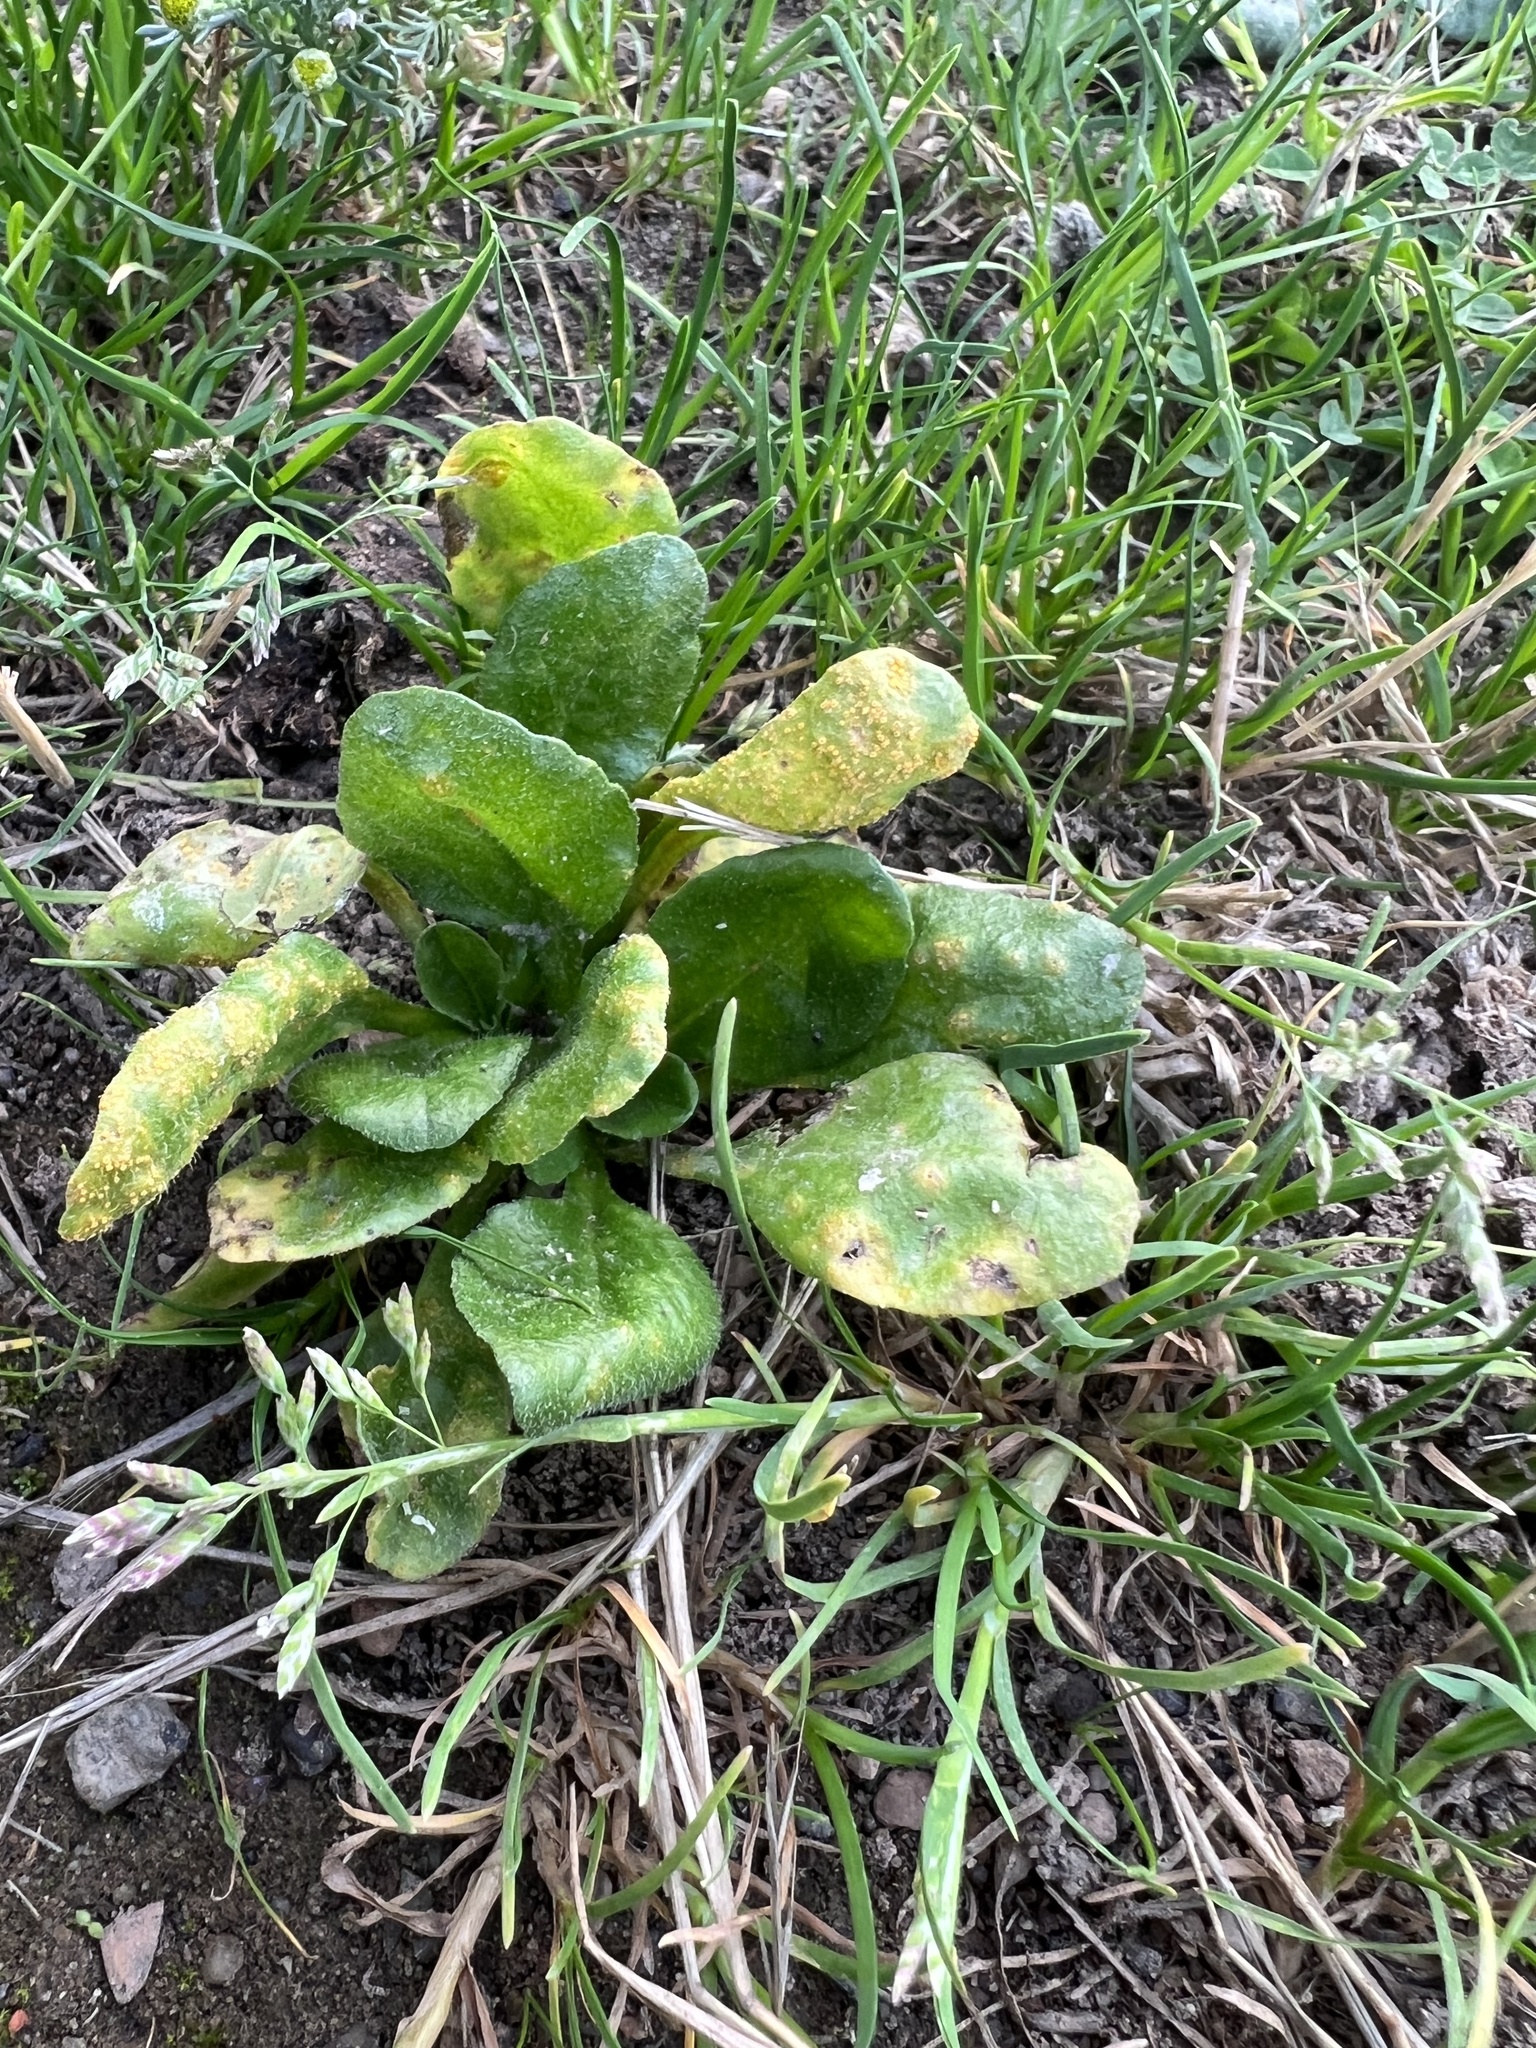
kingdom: Plantae
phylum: Tracheophyta
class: Magnoliopsida
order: Asterales
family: Asteraceae
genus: Bellis
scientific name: Bellis perennis
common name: Lawndaisy
